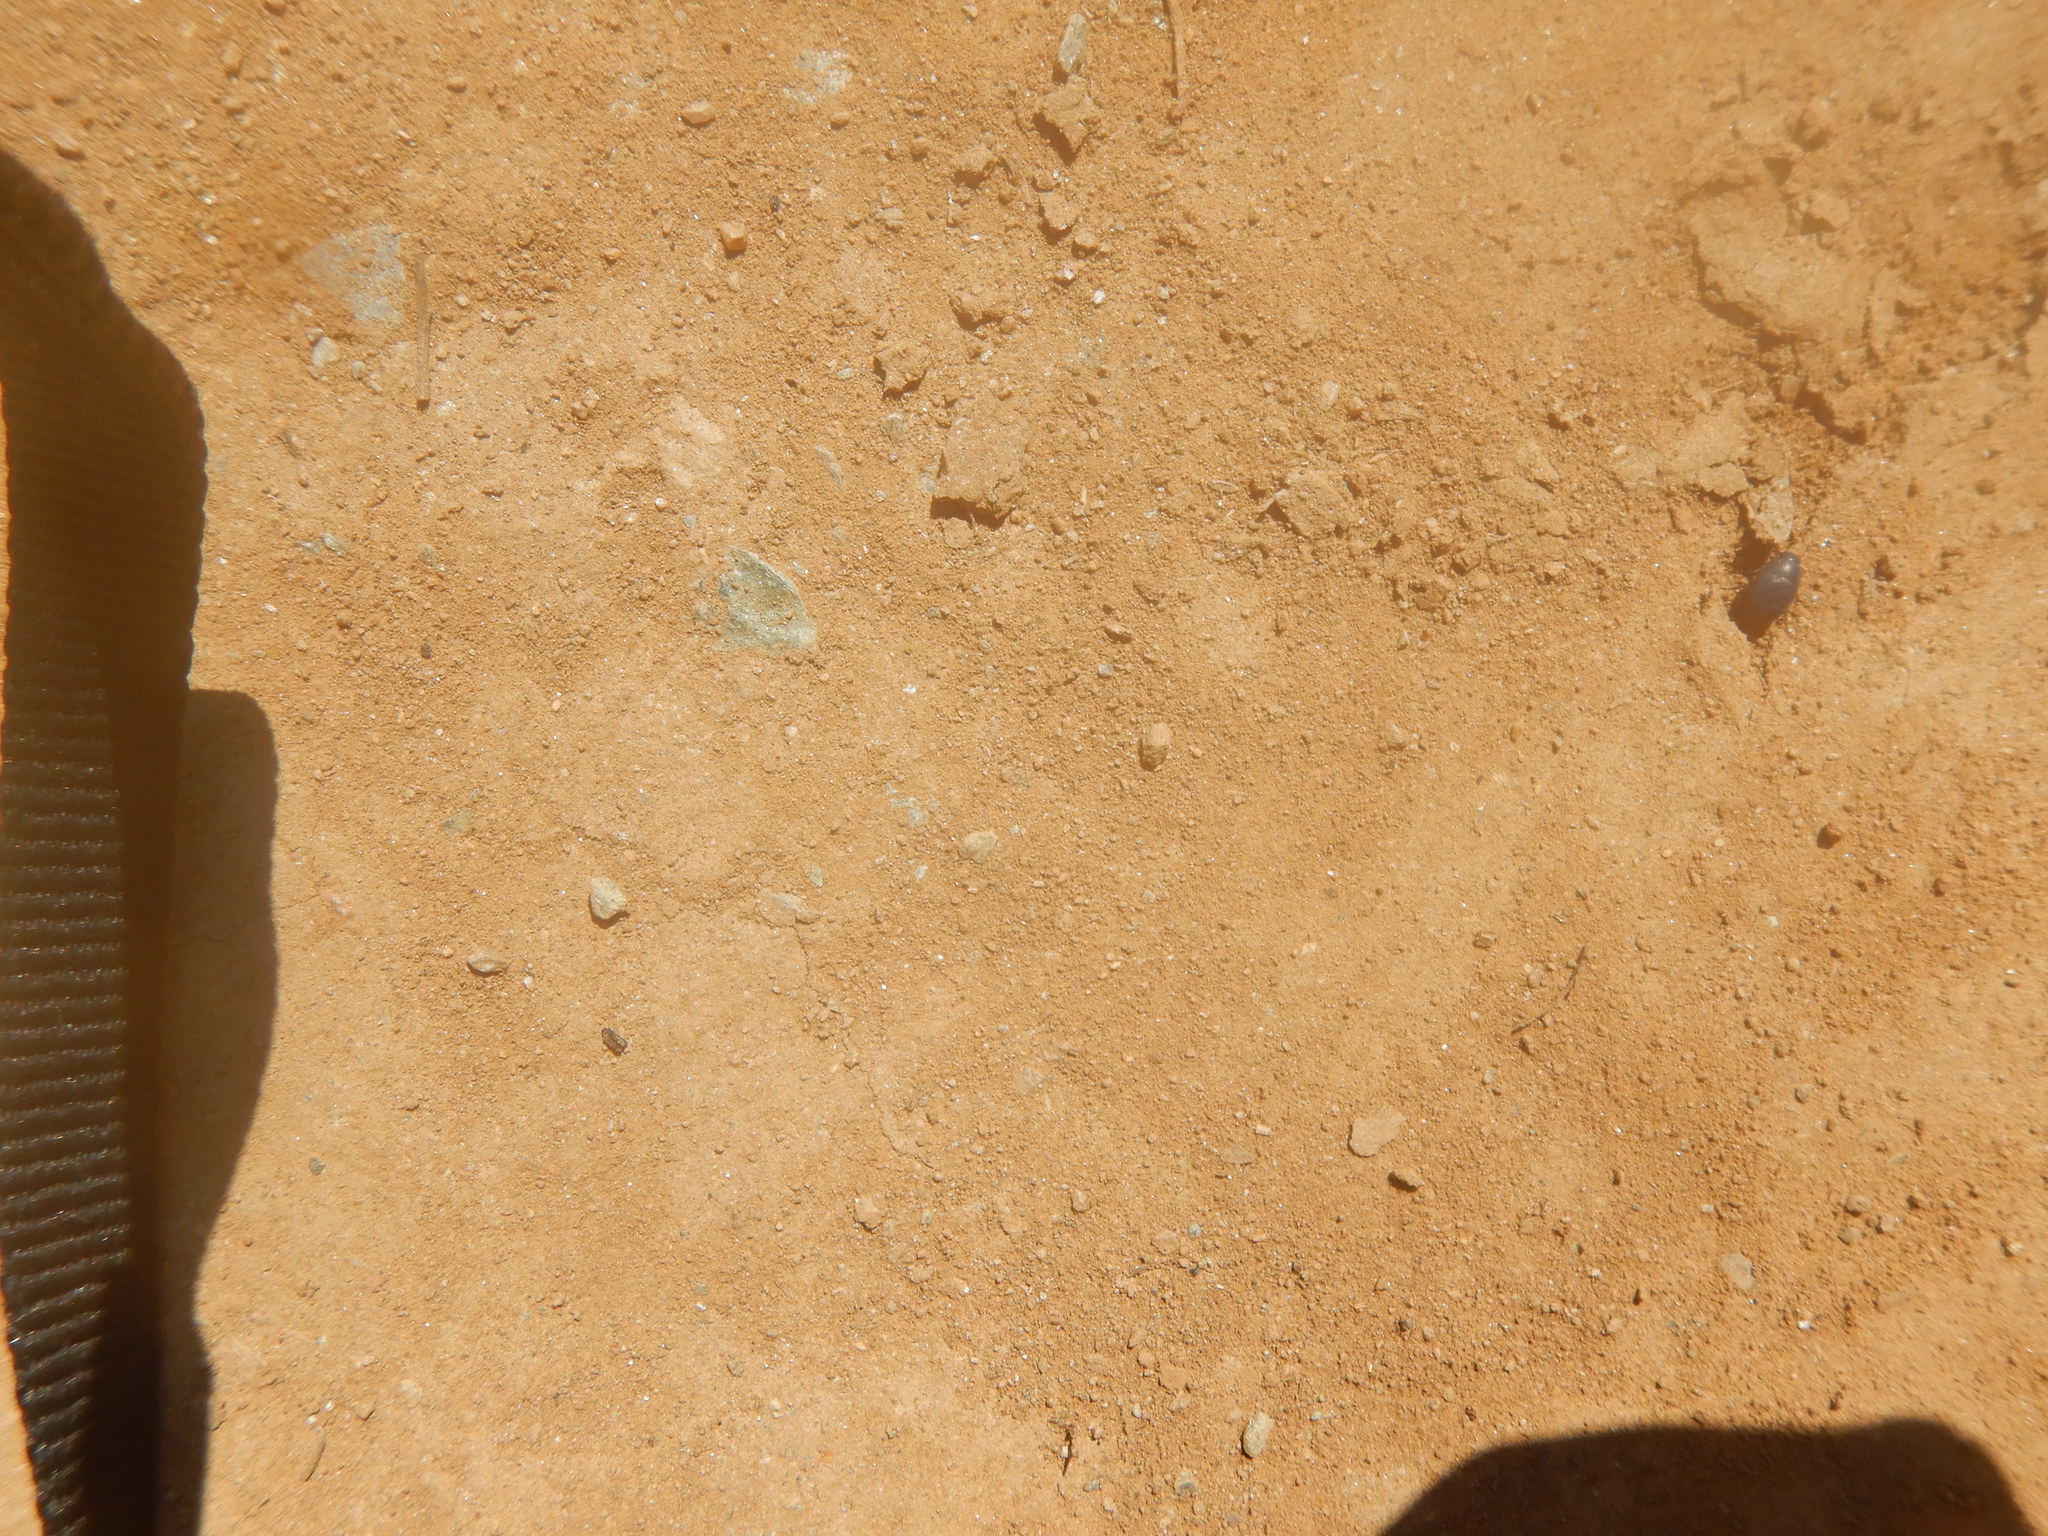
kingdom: Animalia
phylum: Arthropoda
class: Insecta
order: Coleoptera
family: Tenebrionidae
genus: Zophosis
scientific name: Zophosis punctata
